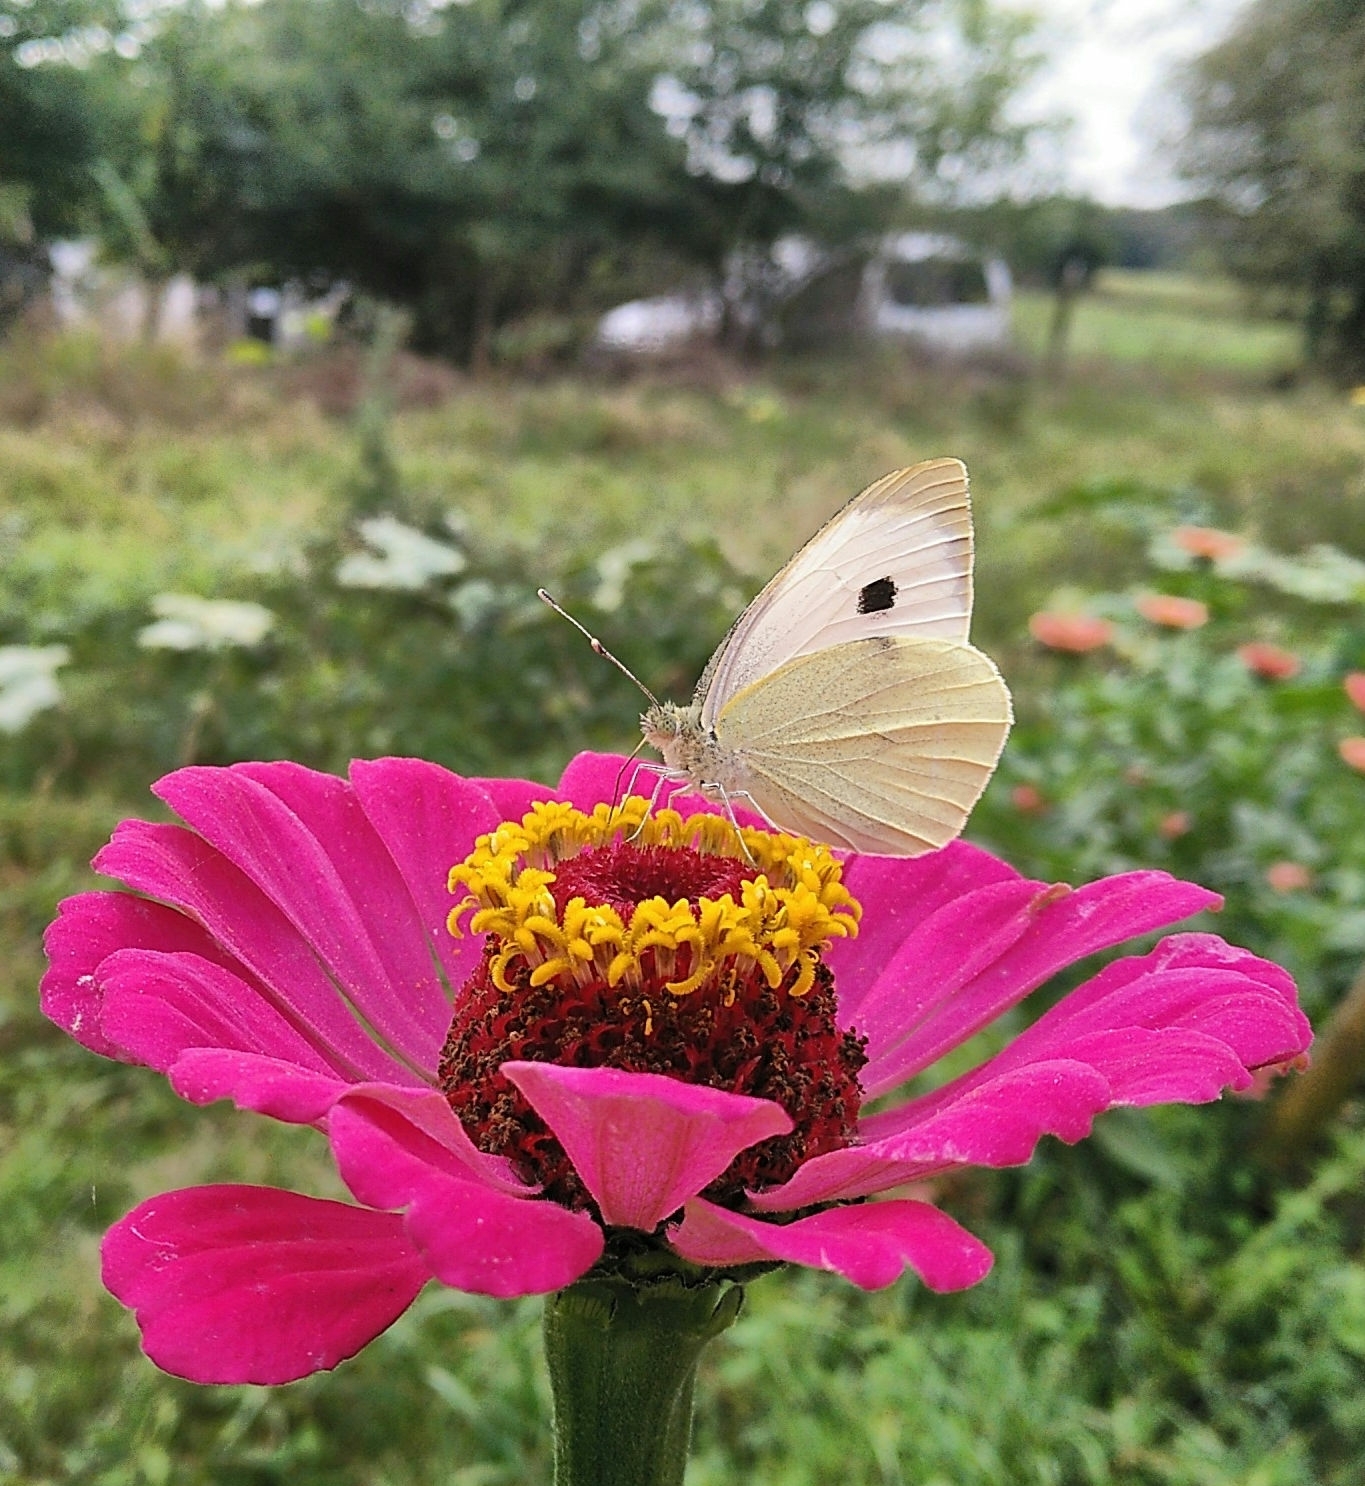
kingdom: Animalia
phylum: Arthropoda
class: Insecta
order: Lepidoptera
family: Pieridae
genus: Pieris
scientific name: Pieris brassicae
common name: Large white
